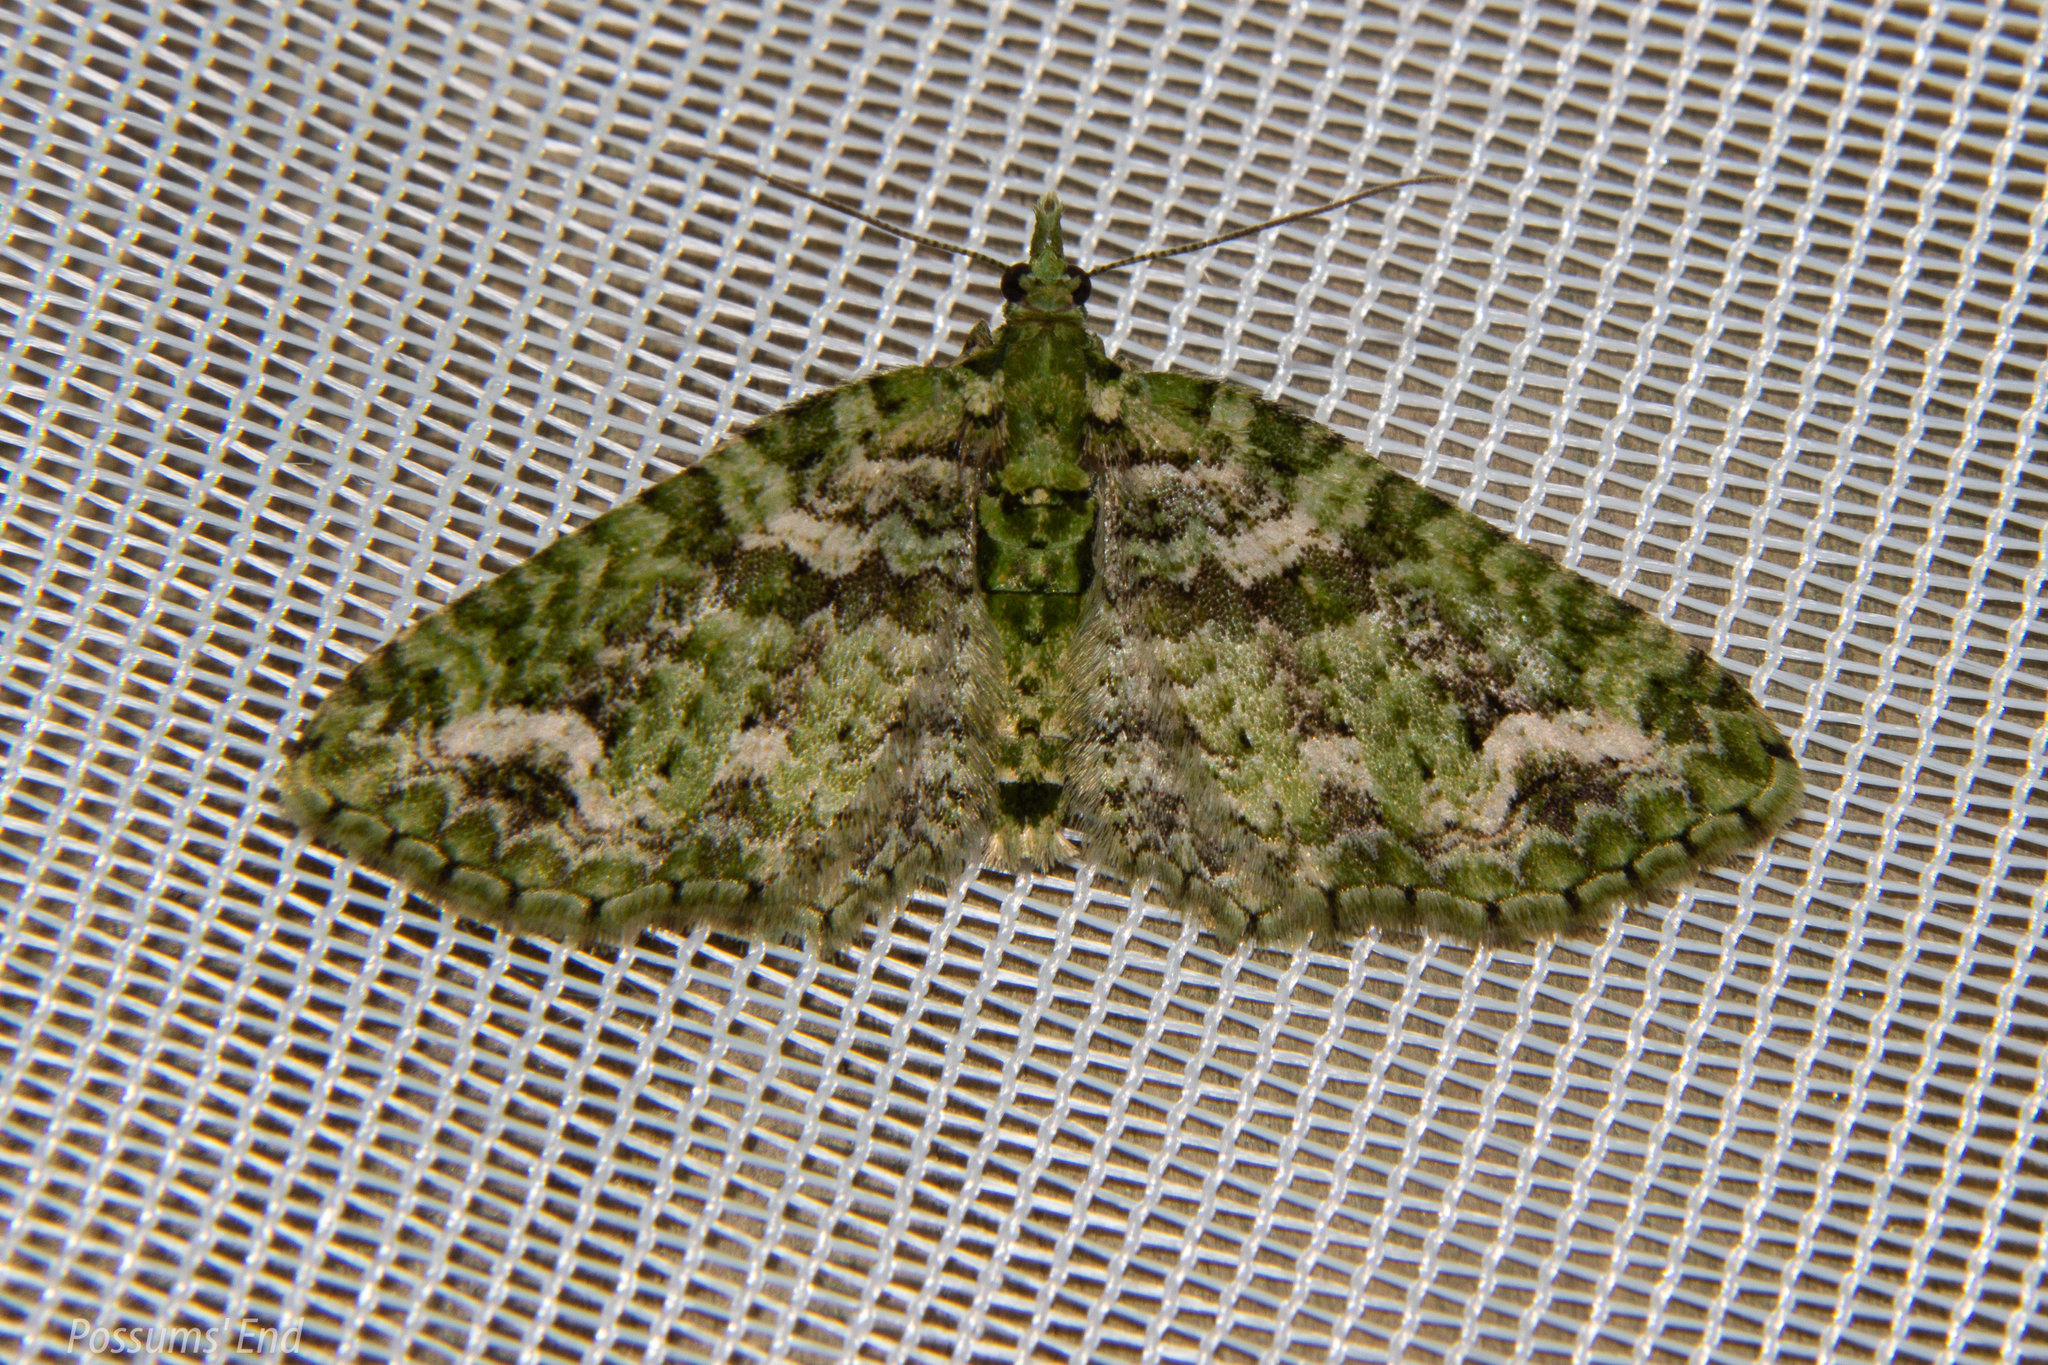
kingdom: Animalia
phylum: Arthropoda
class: Insecta
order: Lepidoptera
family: Geometridae
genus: Pasiphila
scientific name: Pasiphila muscosata
